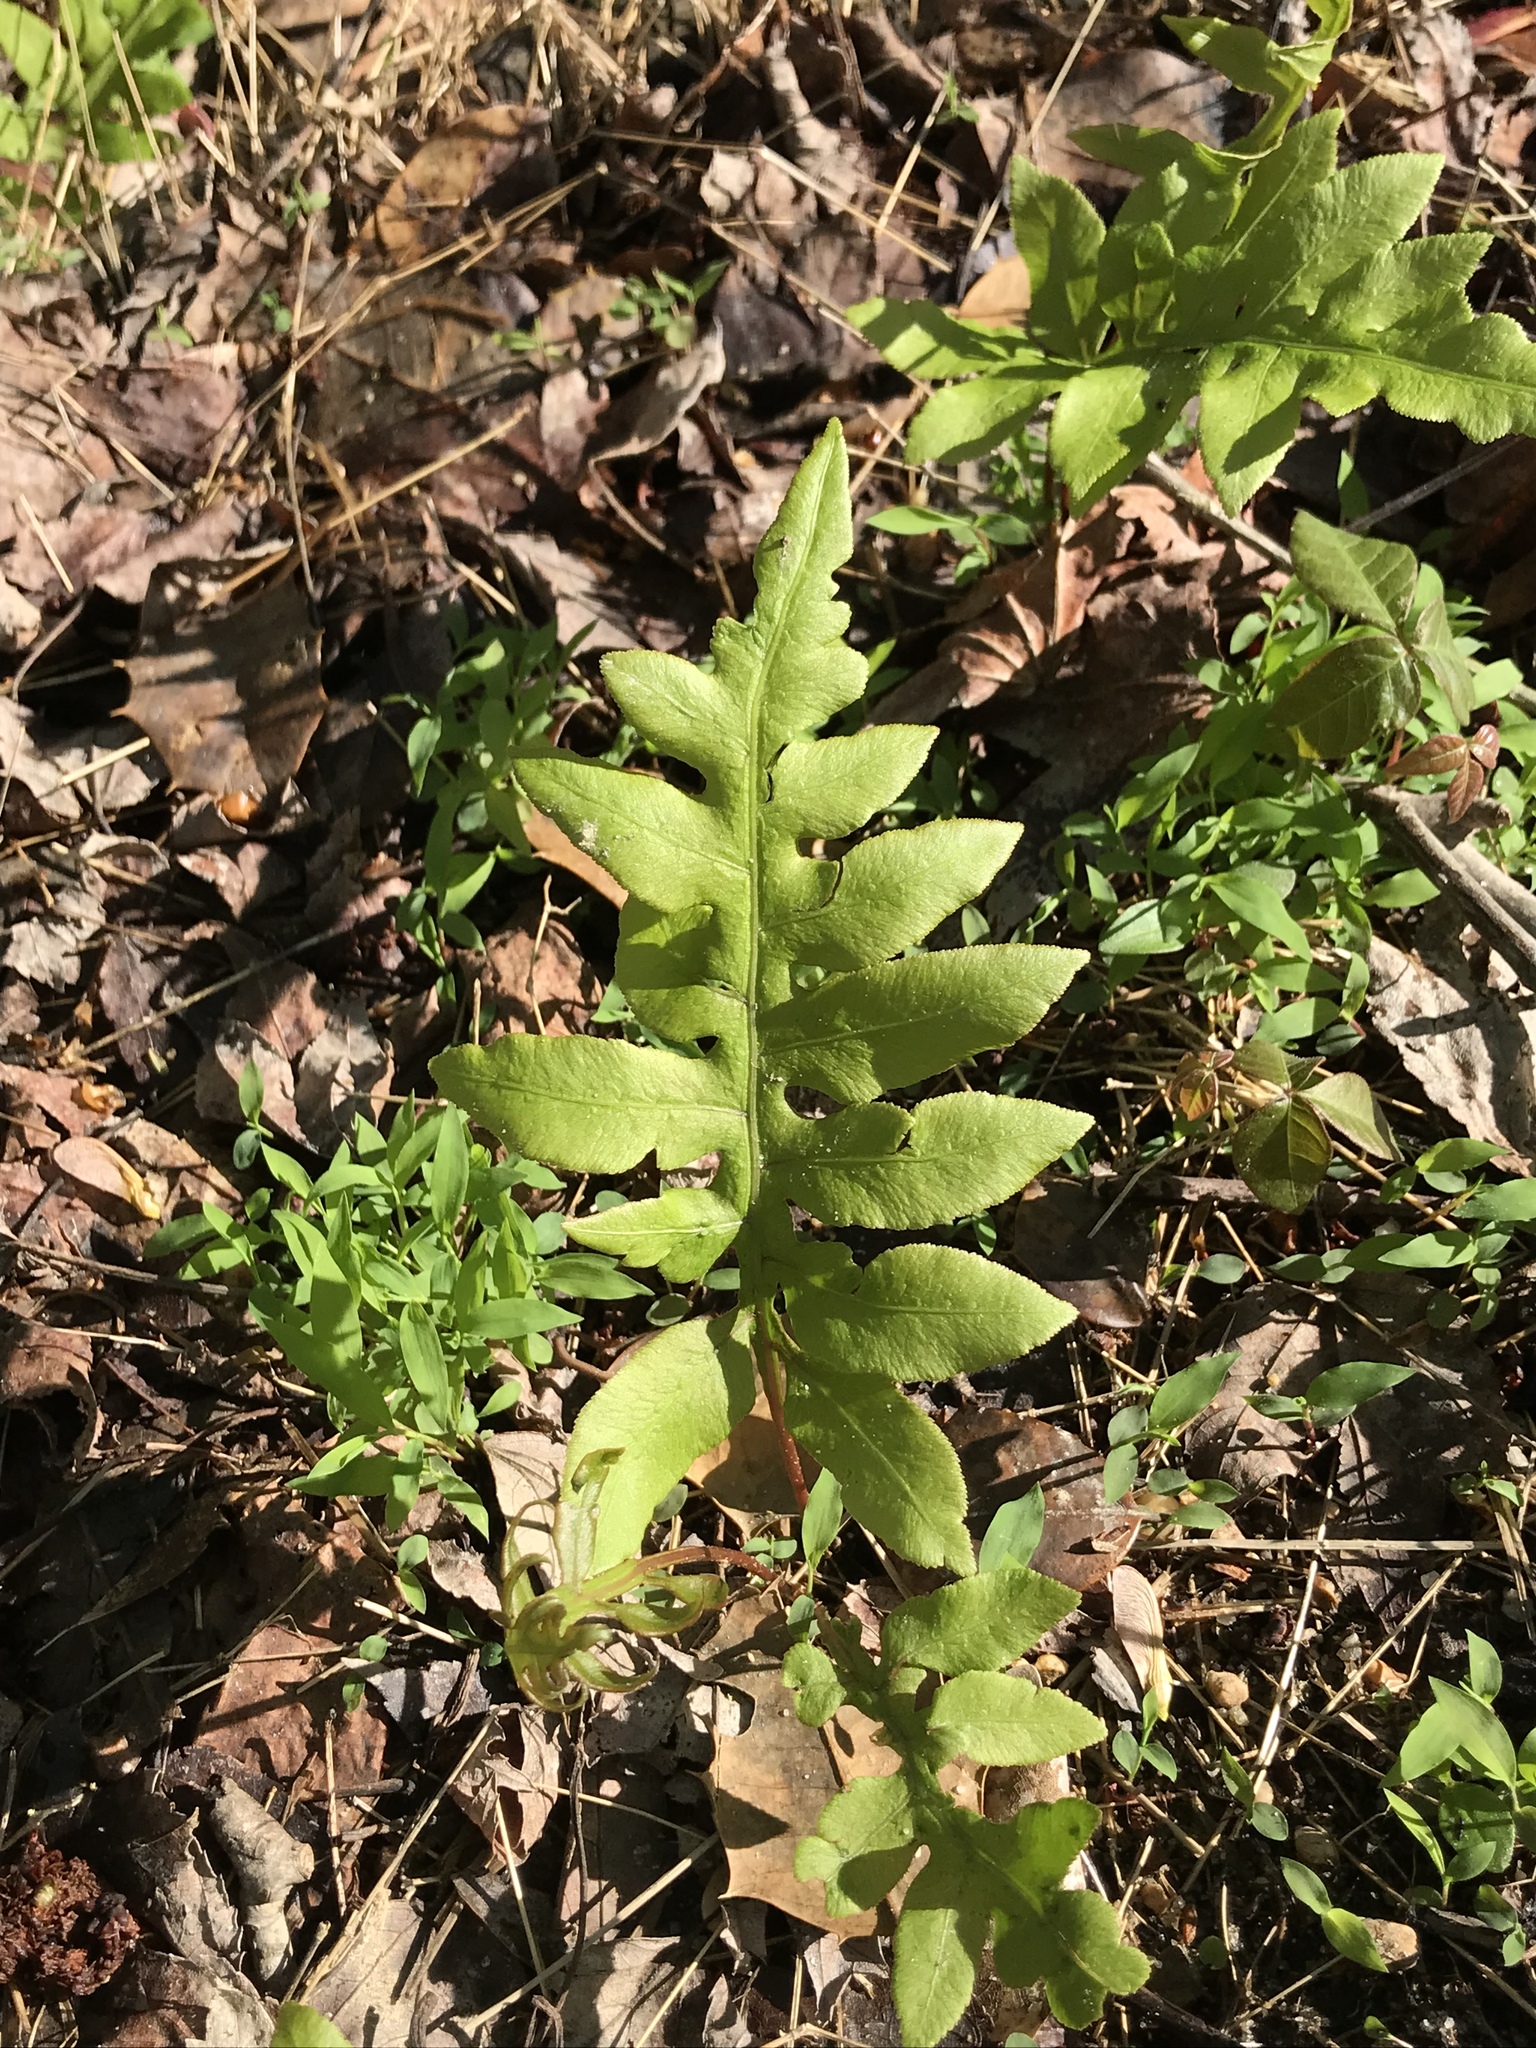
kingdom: Plantae
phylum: Tracheophyta
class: Polypodiopsida
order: Polypodiales
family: Blechnaceae
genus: Lorinseria
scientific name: Lorinseria areolata
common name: Dwarf chain fern
